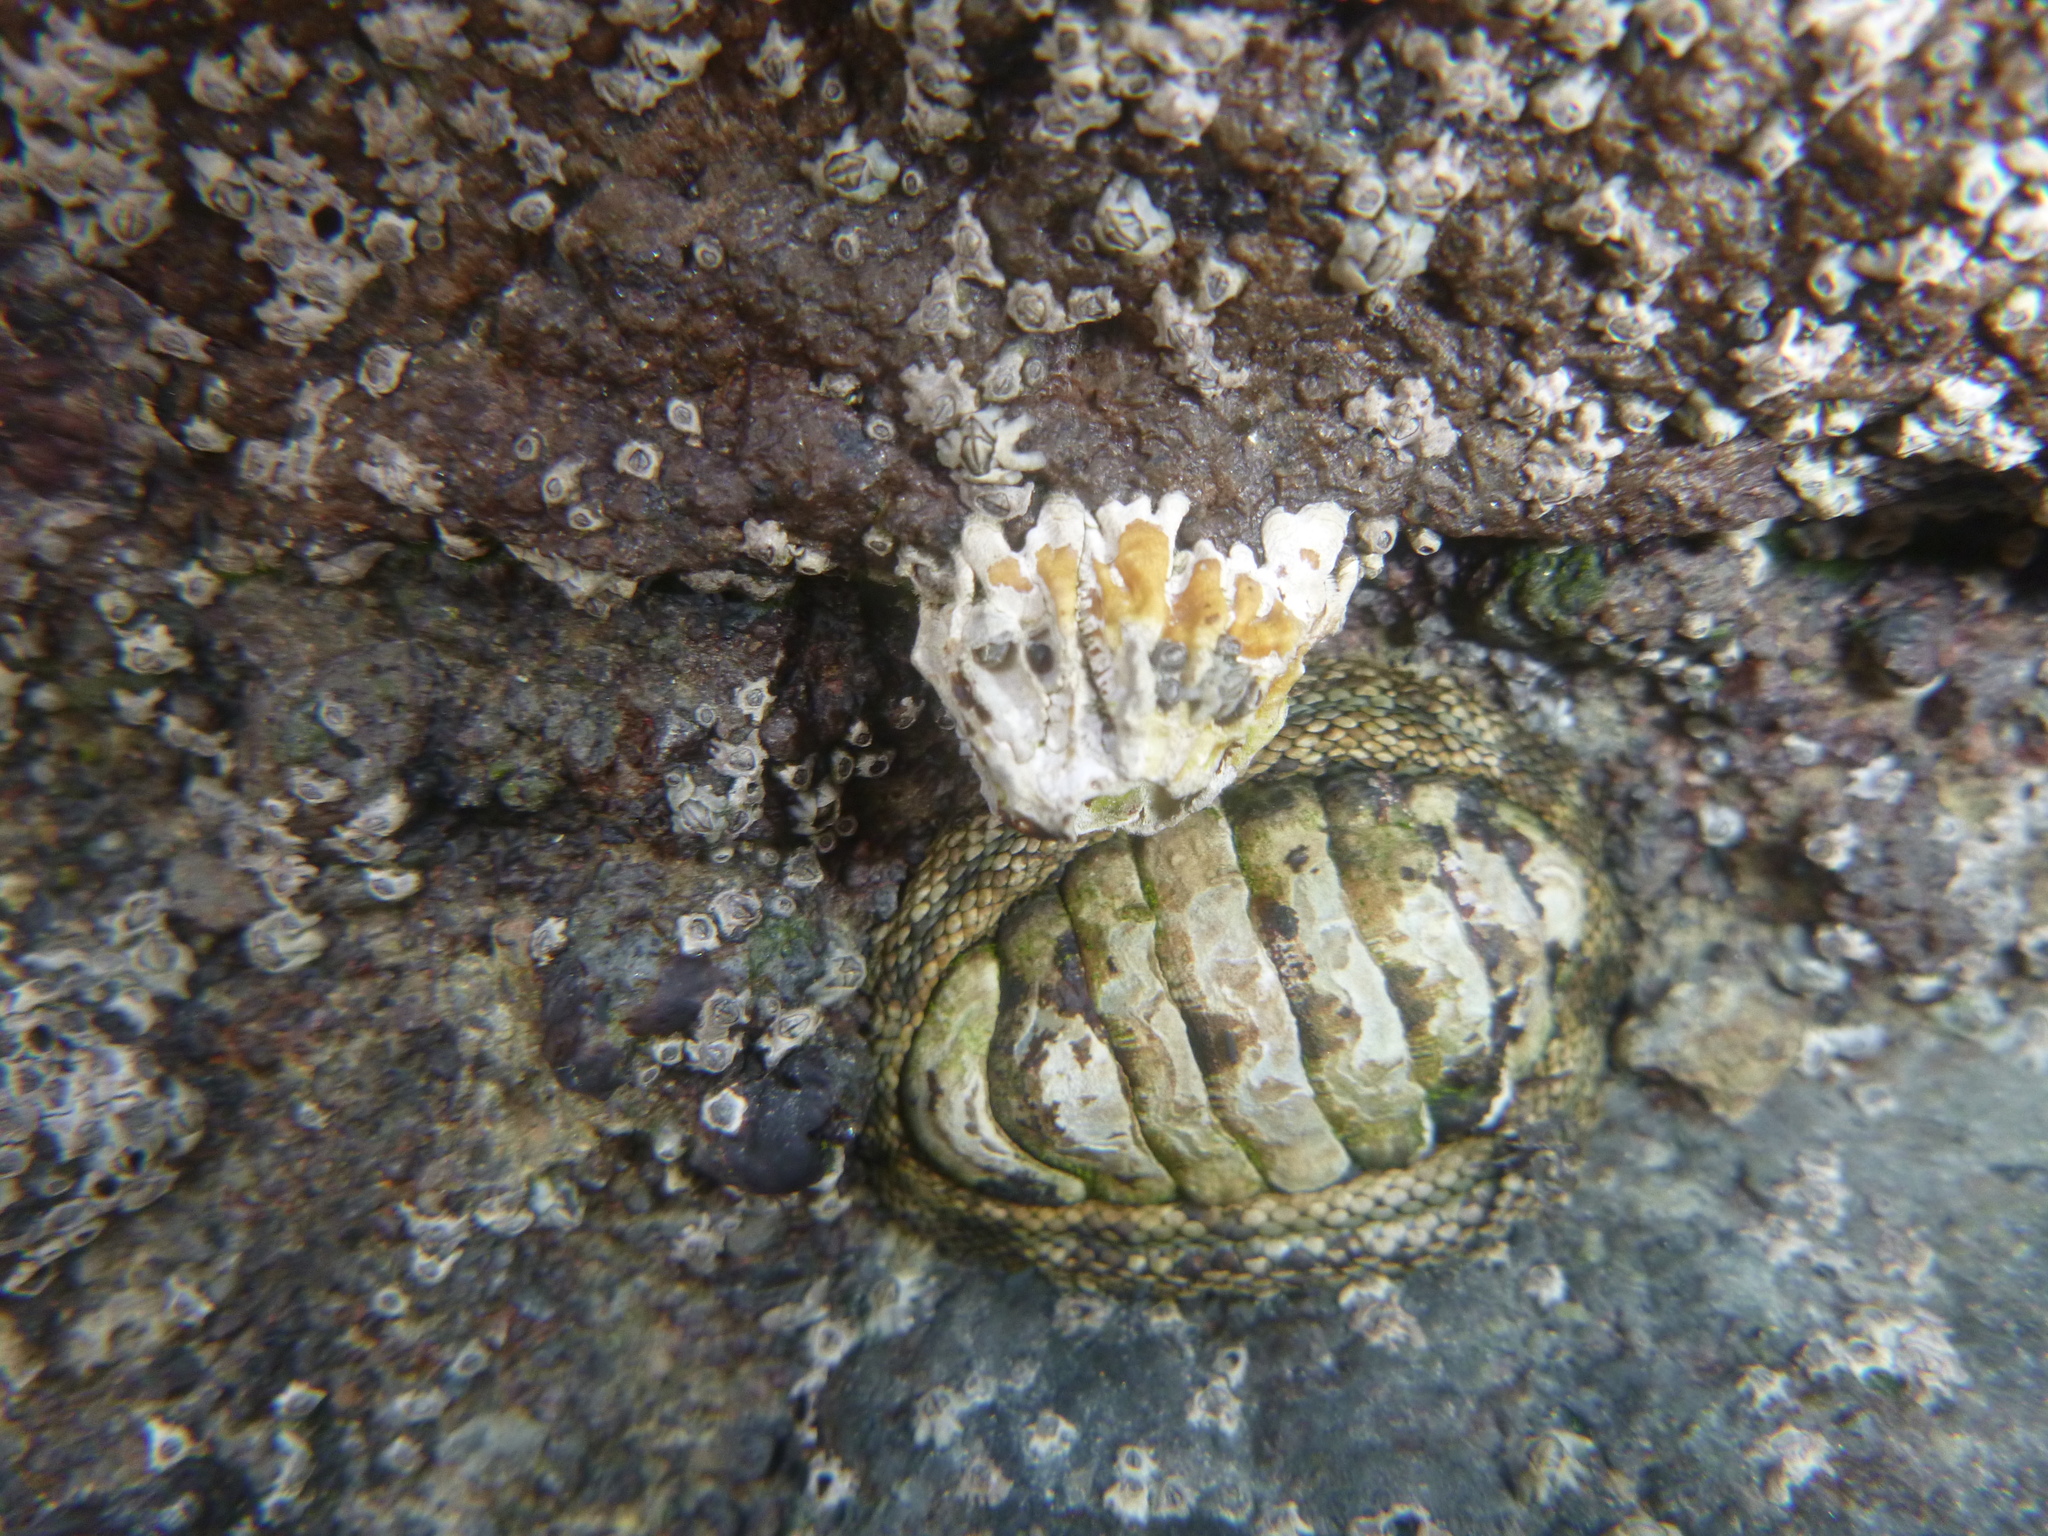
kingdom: Animalia
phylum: Mollusca
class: Polyplacophora
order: Chitonida
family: Chitonidae
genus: Sypharochiton
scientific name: Sypharochiton pelliserpentis
